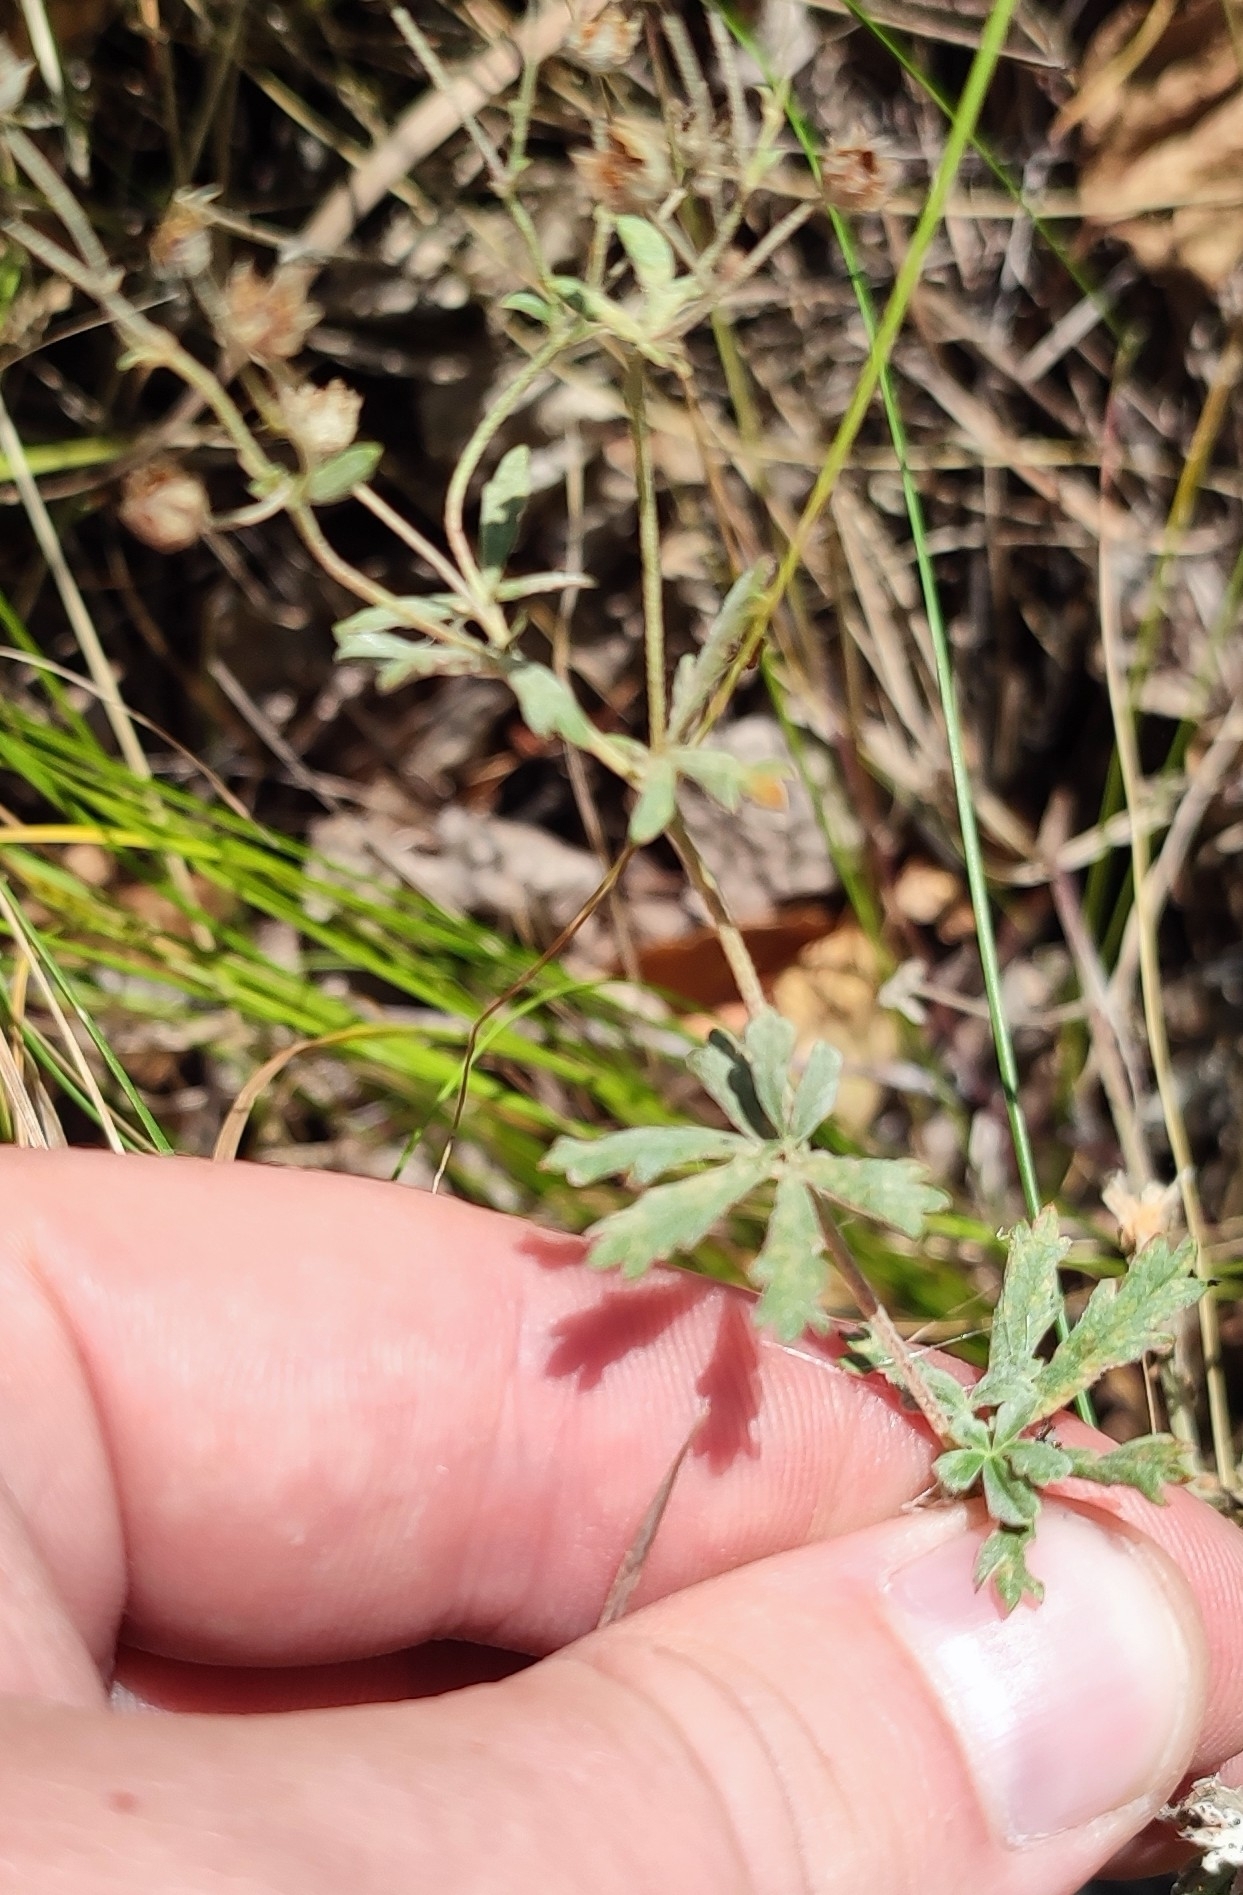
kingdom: Plantae
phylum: Tracheophyta
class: Magnoliopsida
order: Rosales
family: Rosaceae
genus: Potentilla
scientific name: Potentilla argentea
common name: Hoary cinquefoil
